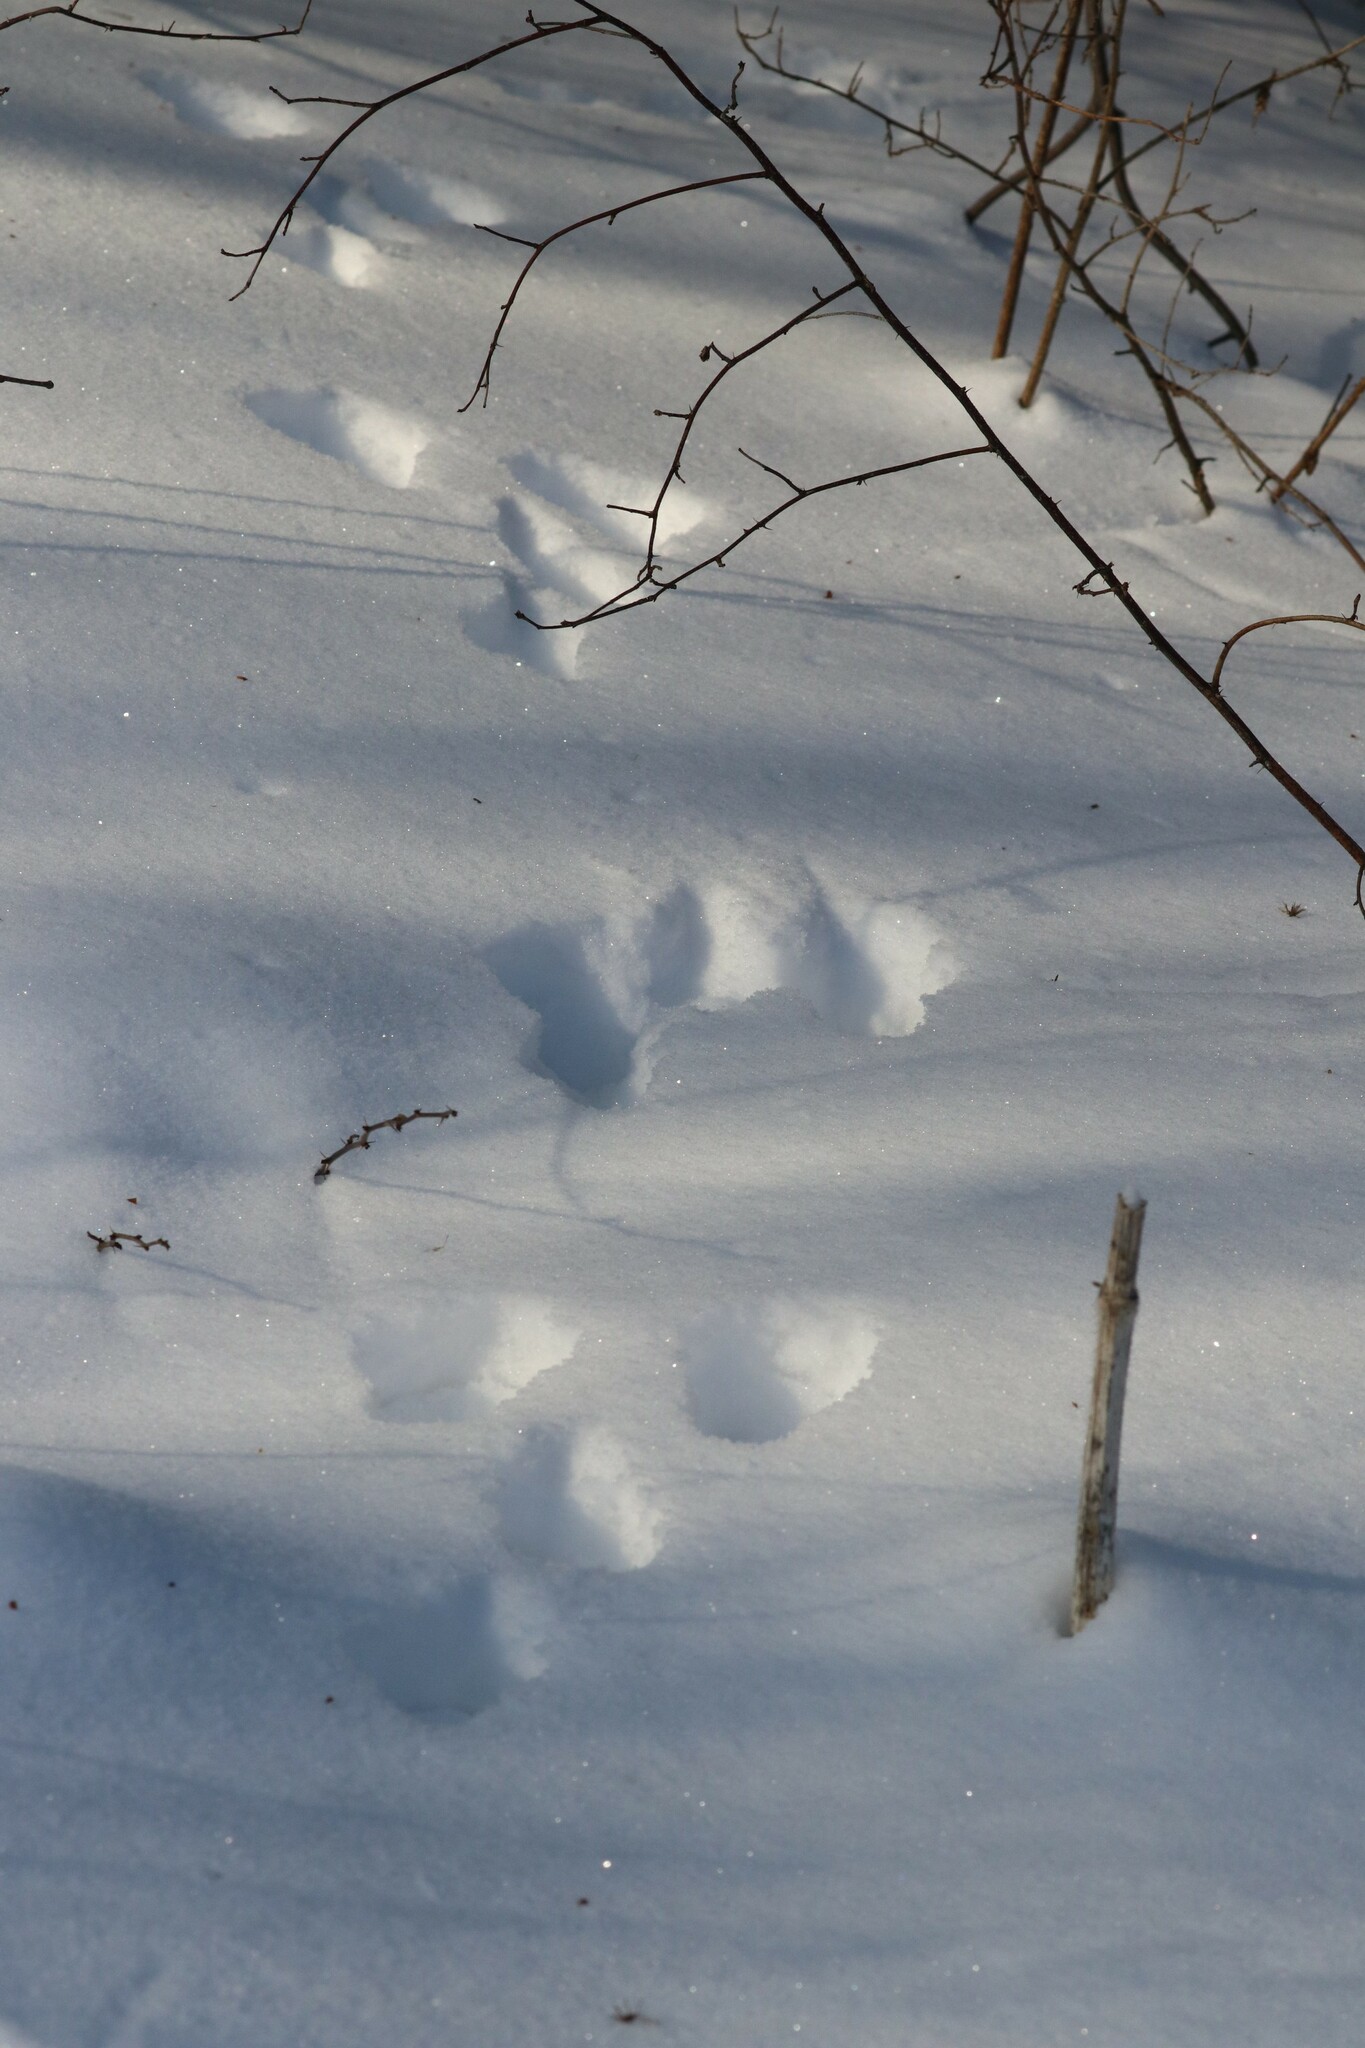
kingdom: Animalia
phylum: Chordata
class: Mammalia
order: Lagomorpha
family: Leporidae
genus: Lepus
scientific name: Lepus timidus
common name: Mountain hare
